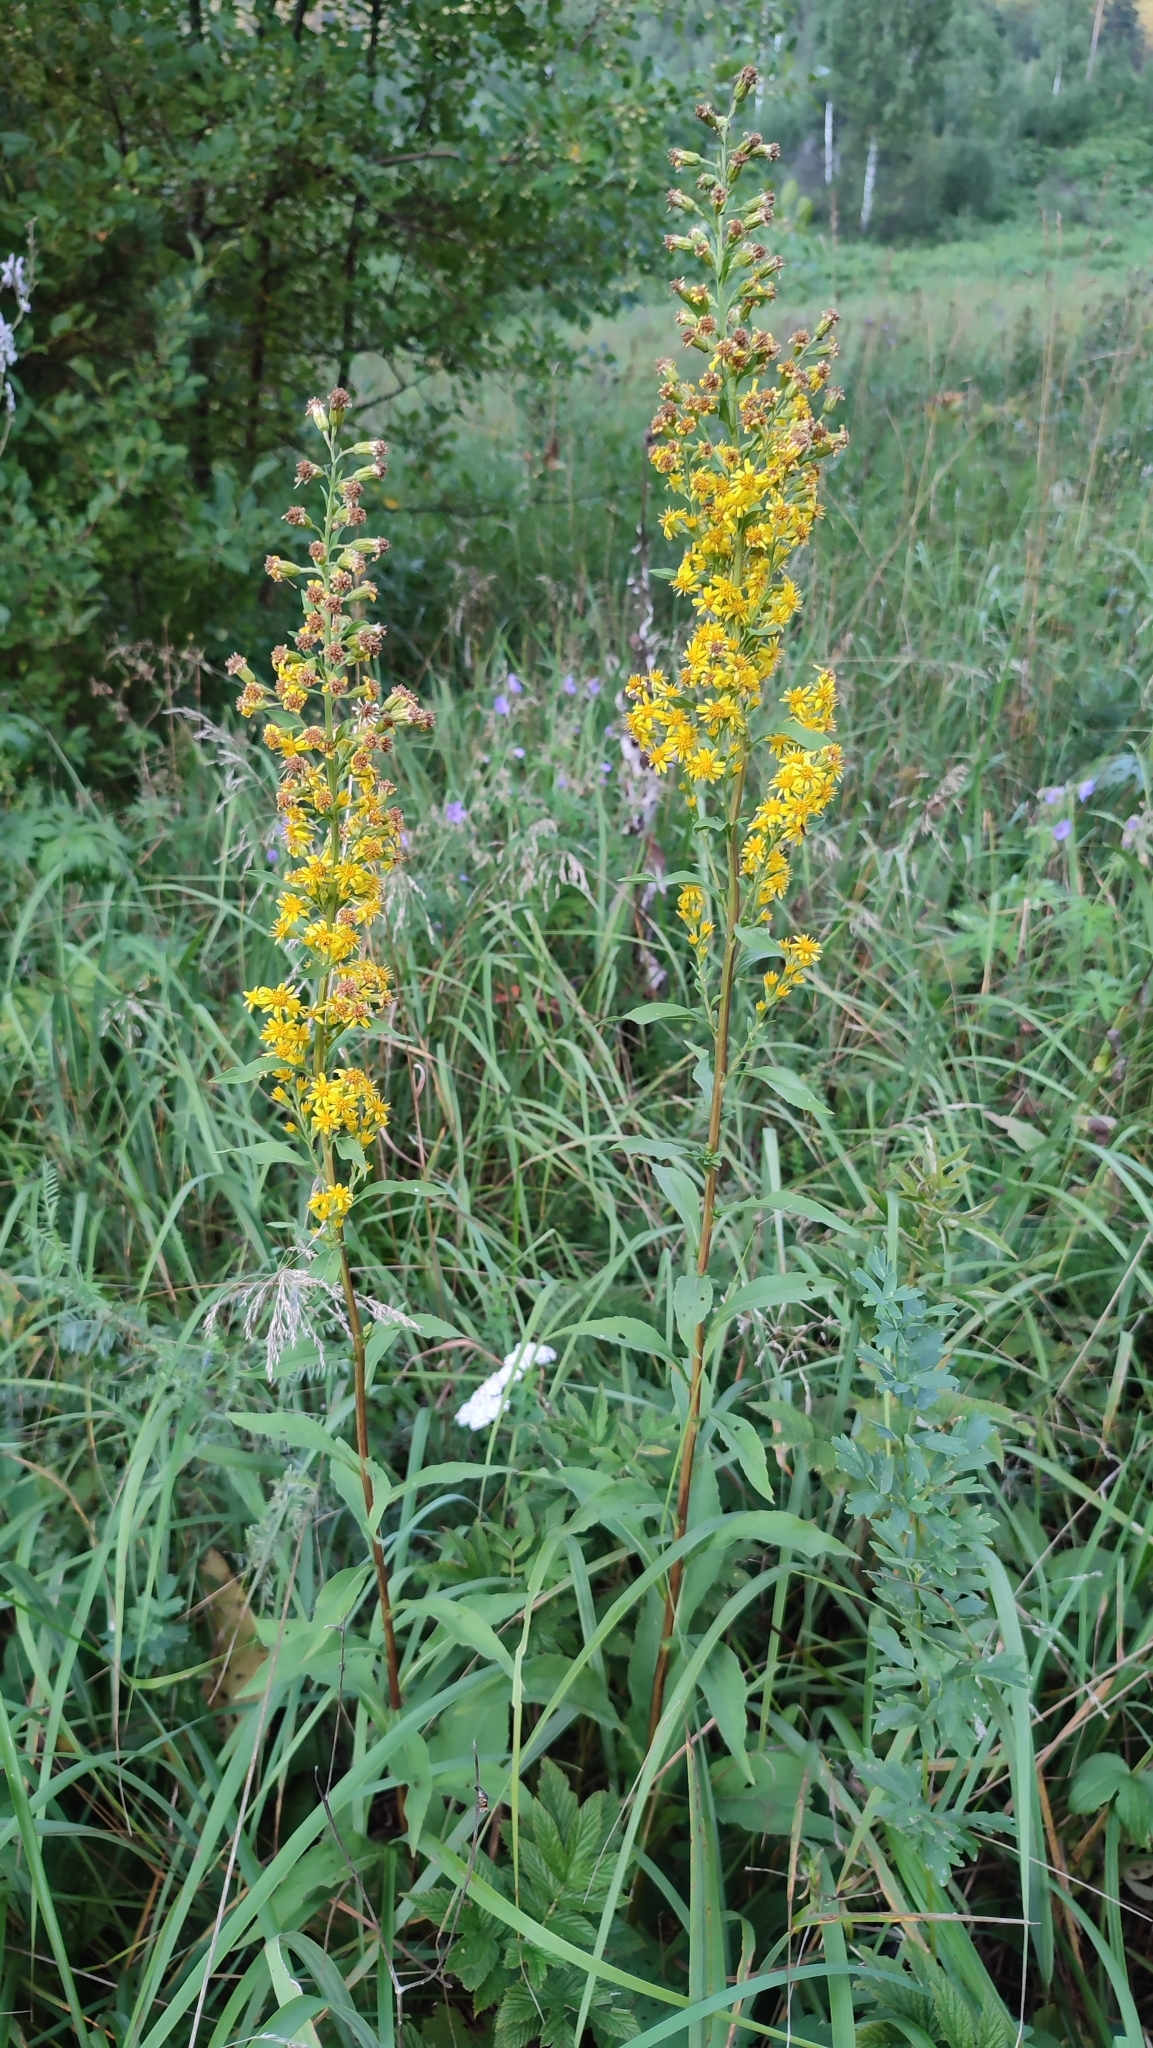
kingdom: Plantae
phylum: Tracheophyta
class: Magnoliopsida
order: Asterales
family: Asteraceae
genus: Solidago
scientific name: Solidago virgaurea
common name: Goldenrod
